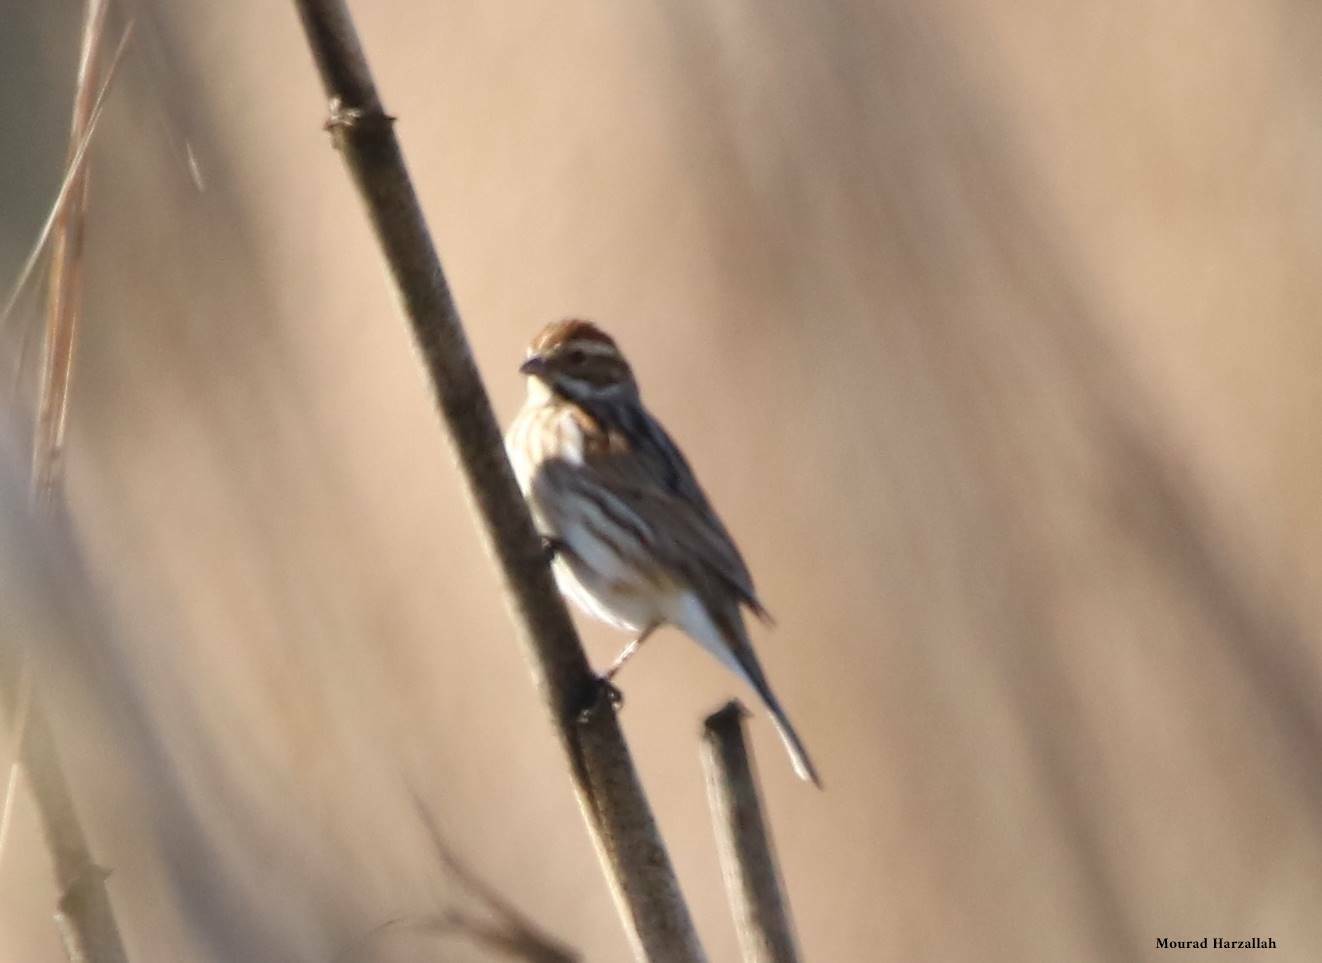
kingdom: Animalia
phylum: Chordata
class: Aves
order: Passeriformes
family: Emberizidae
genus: Emberiza
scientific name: Emberiza schoeniclus
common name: Reed bunting
